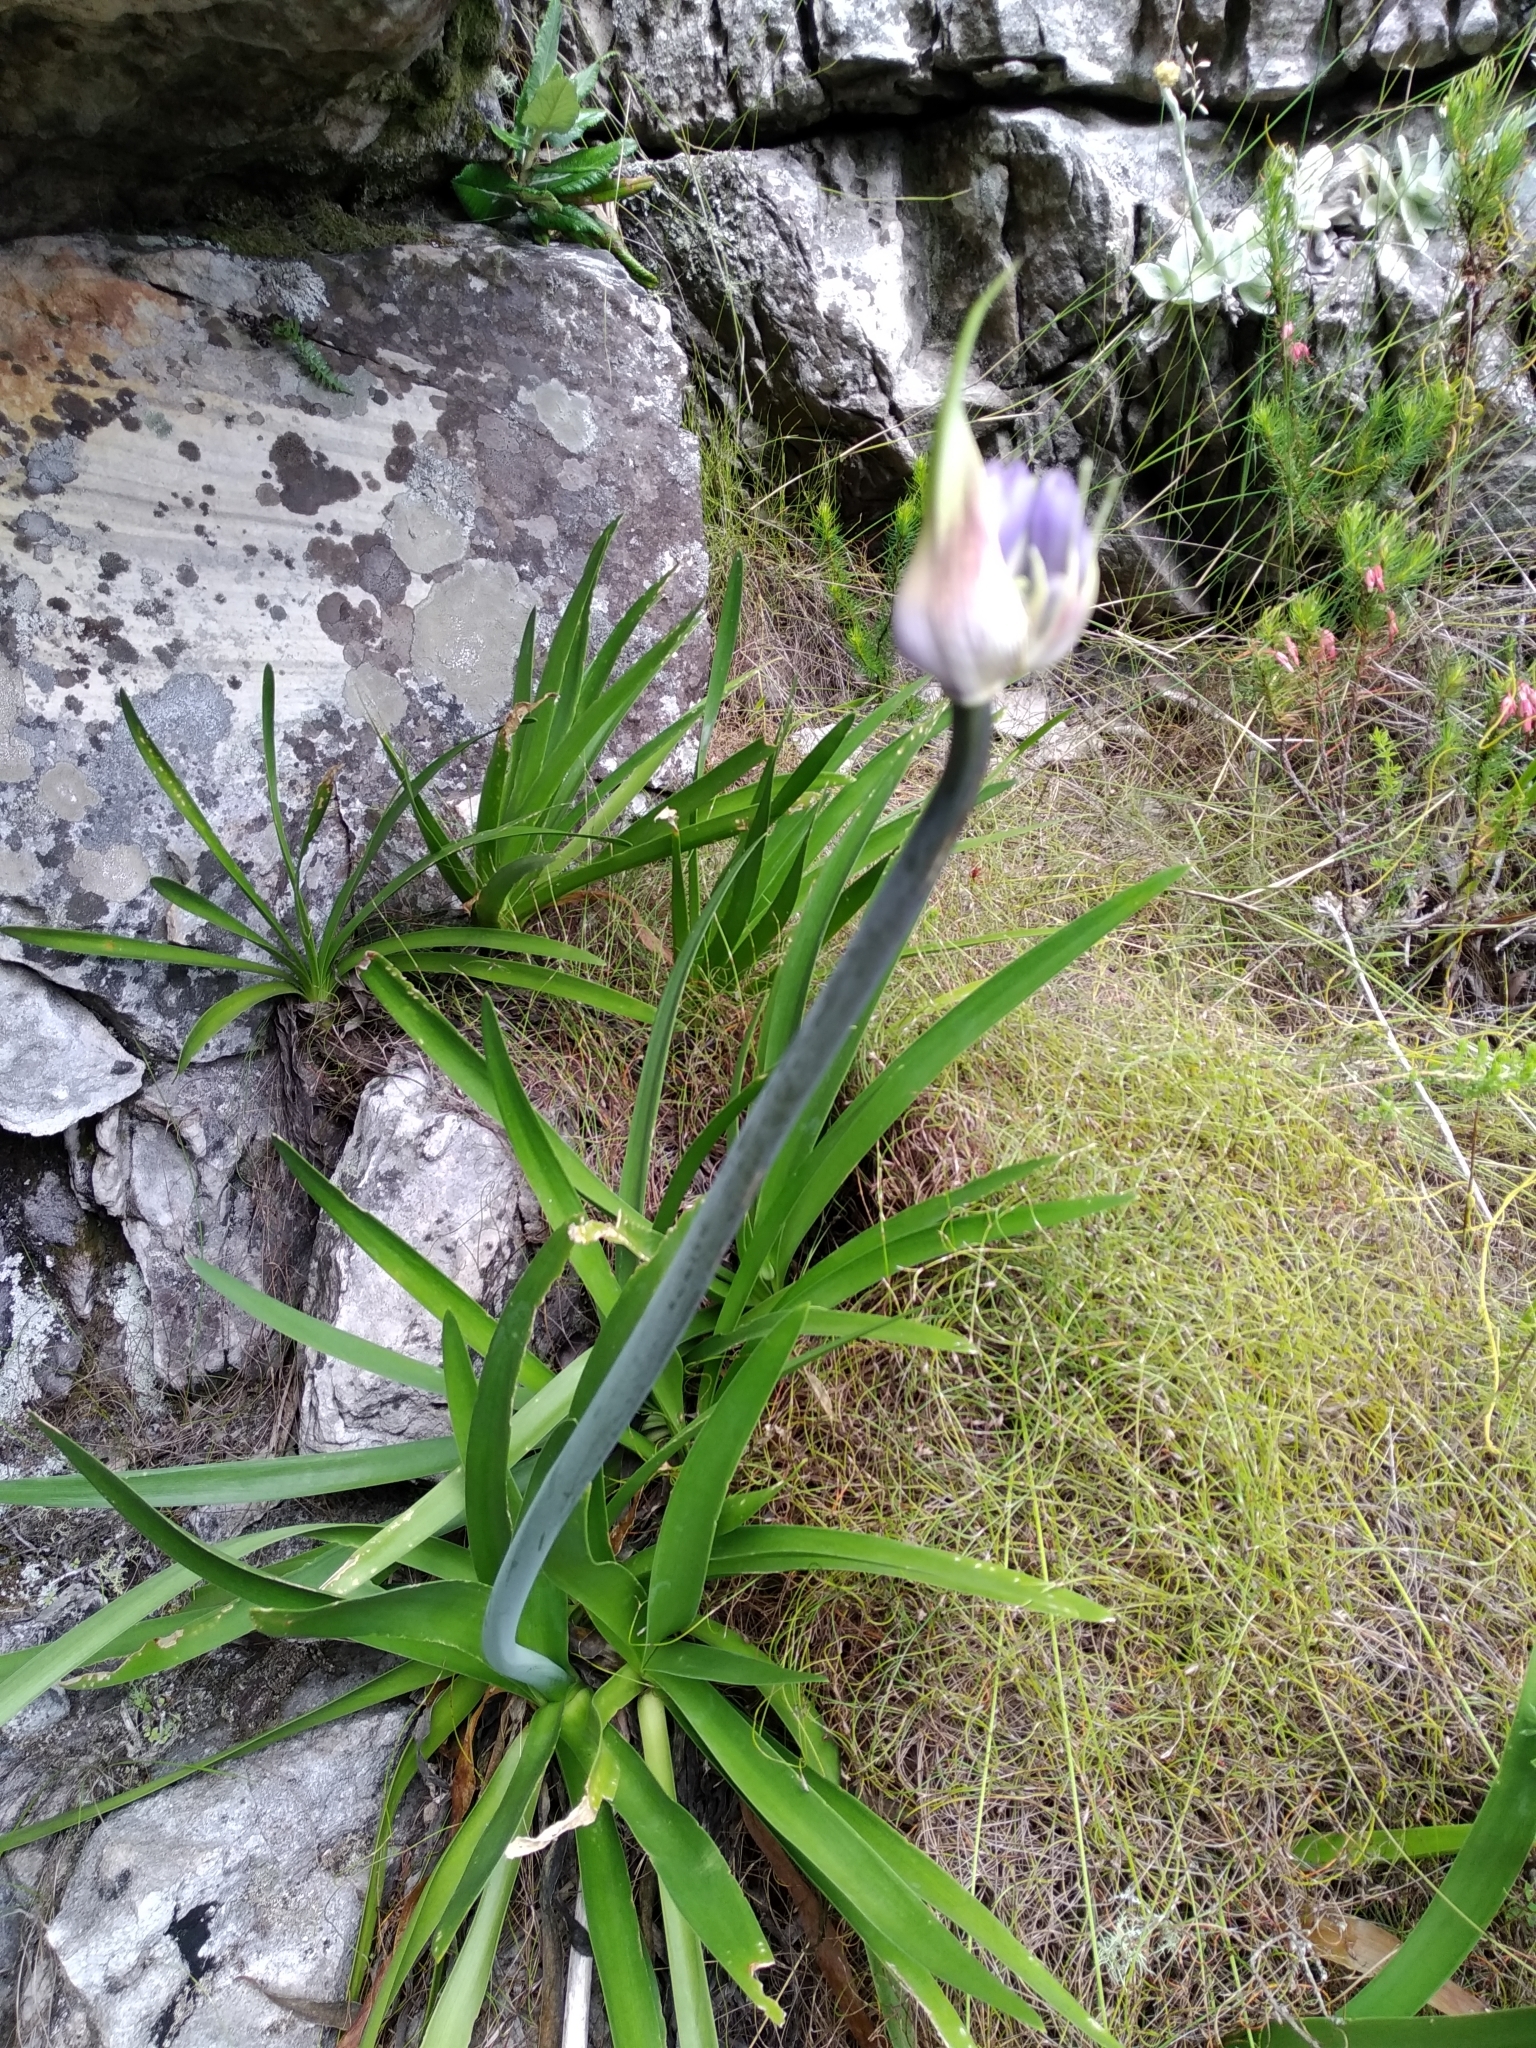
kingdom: Plantae
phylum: Tracheophyta
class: Liliopsida
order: Asparagales
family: Amaryllidaceae
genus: Agapanthus
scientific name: Agapanthus africanus
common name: Lily-of-the-nile
